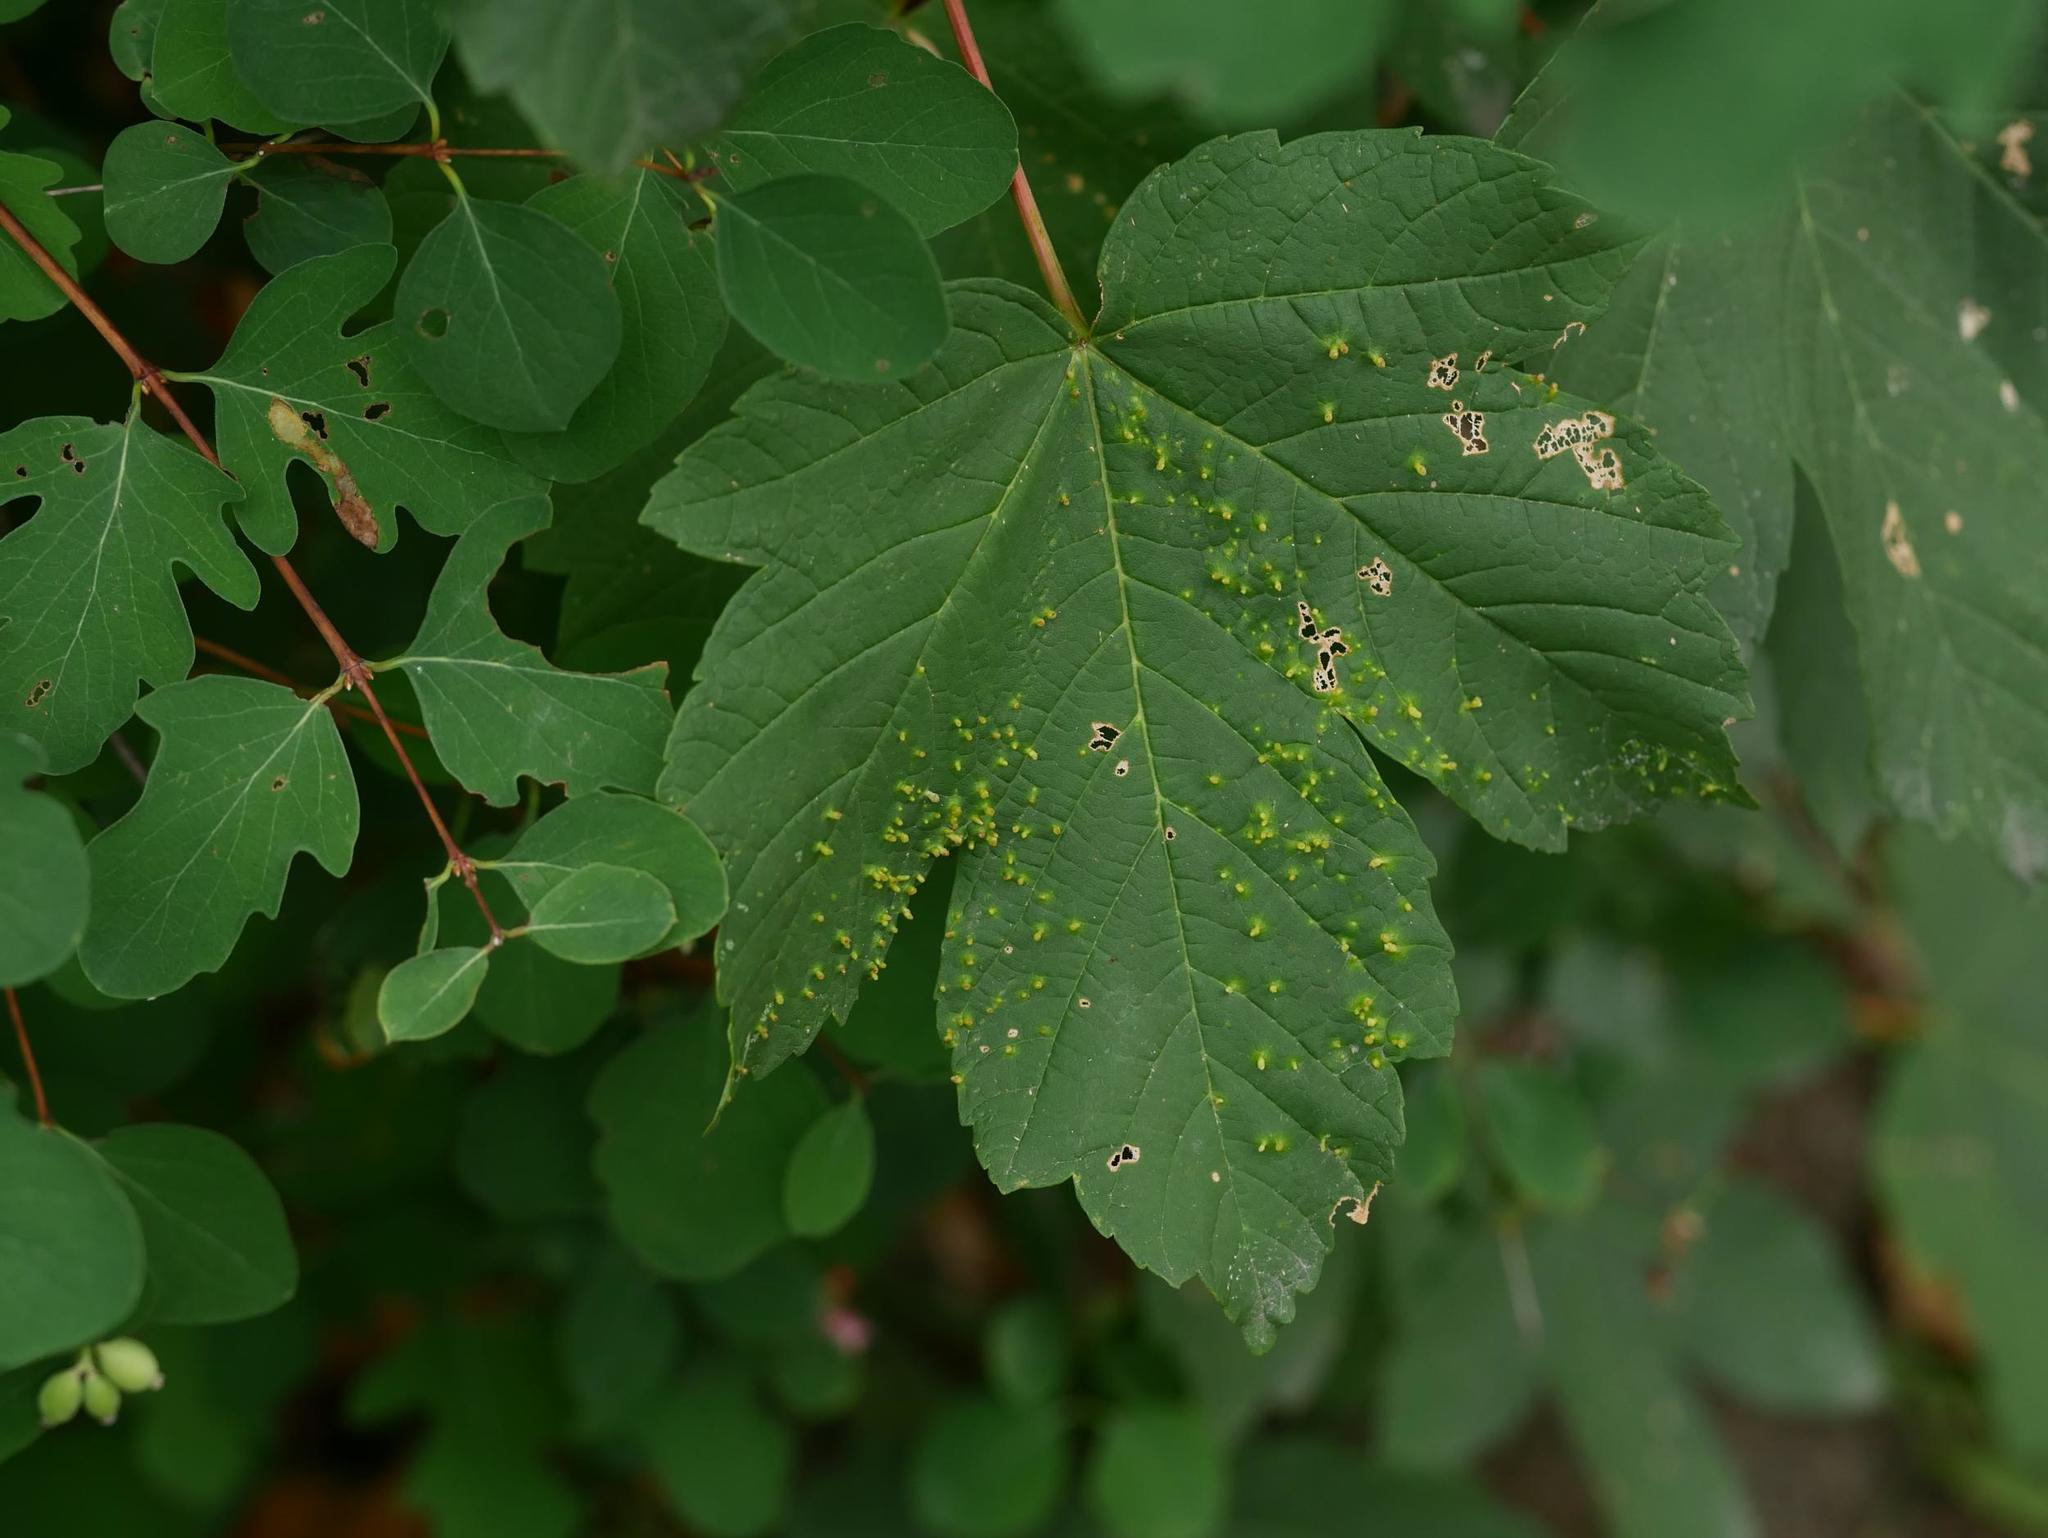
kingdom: Animalia
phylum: Arthropoda
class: Arachnida
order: Trombidiformes
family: Eriophyidae
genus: Aceria
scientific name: Aceria cephaloneus
